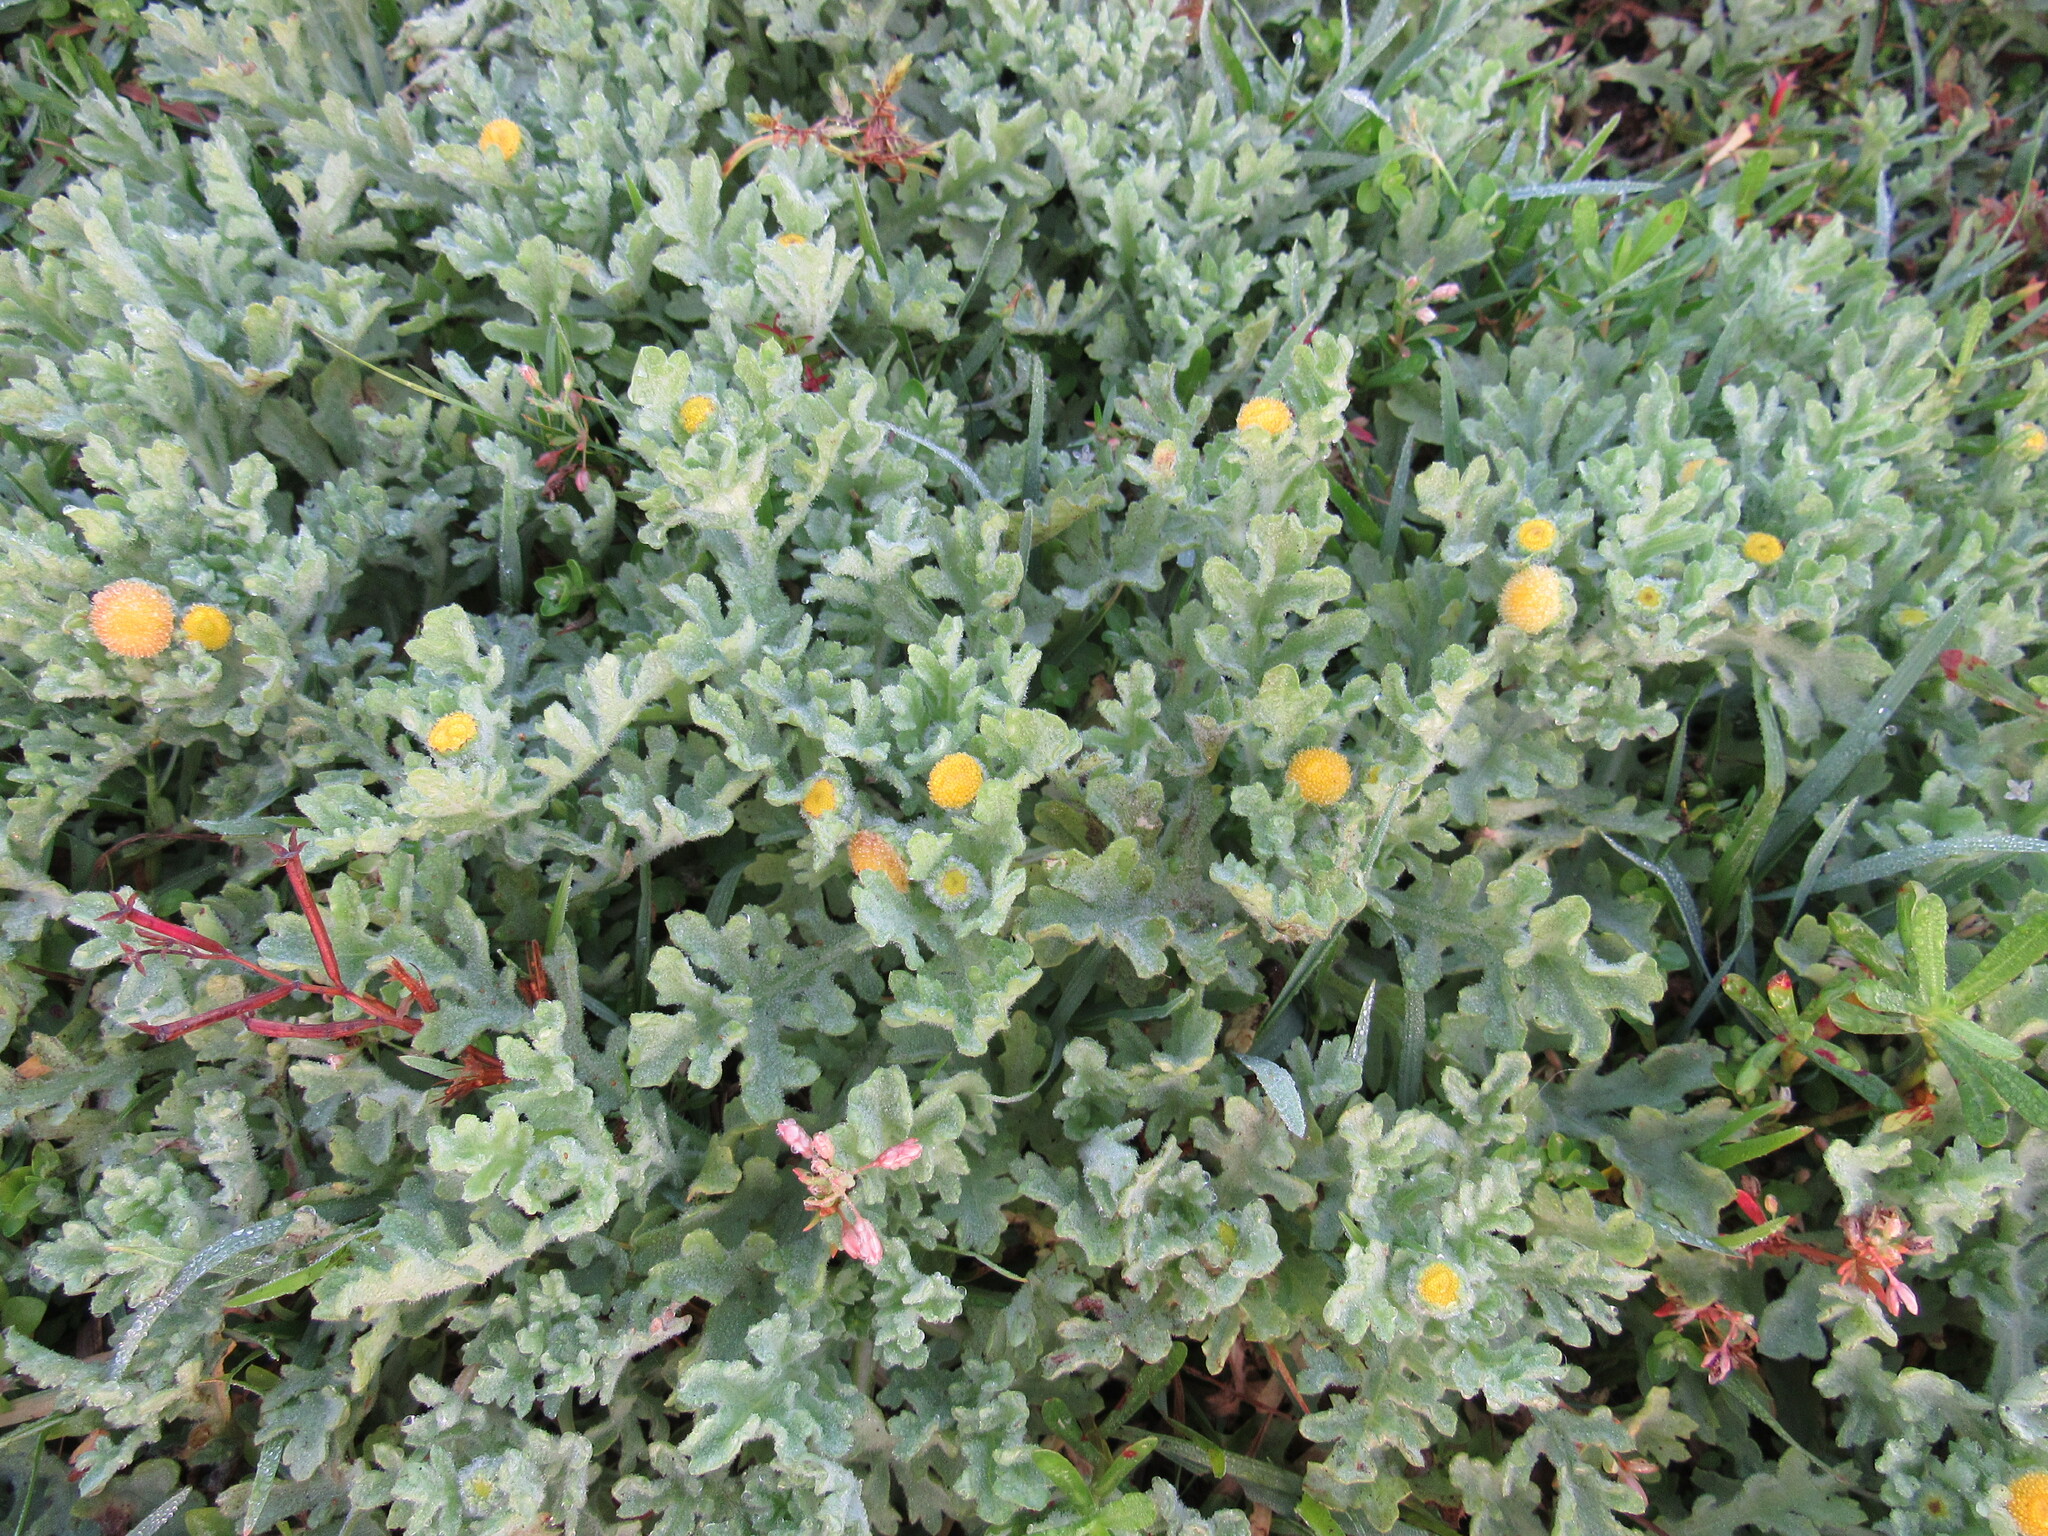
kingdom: Plantae
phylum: Tracheophyta
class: Magnoliopsida
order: Asterales
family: Asteraceae
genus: Grangea
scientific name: Grangea maderaspatana
